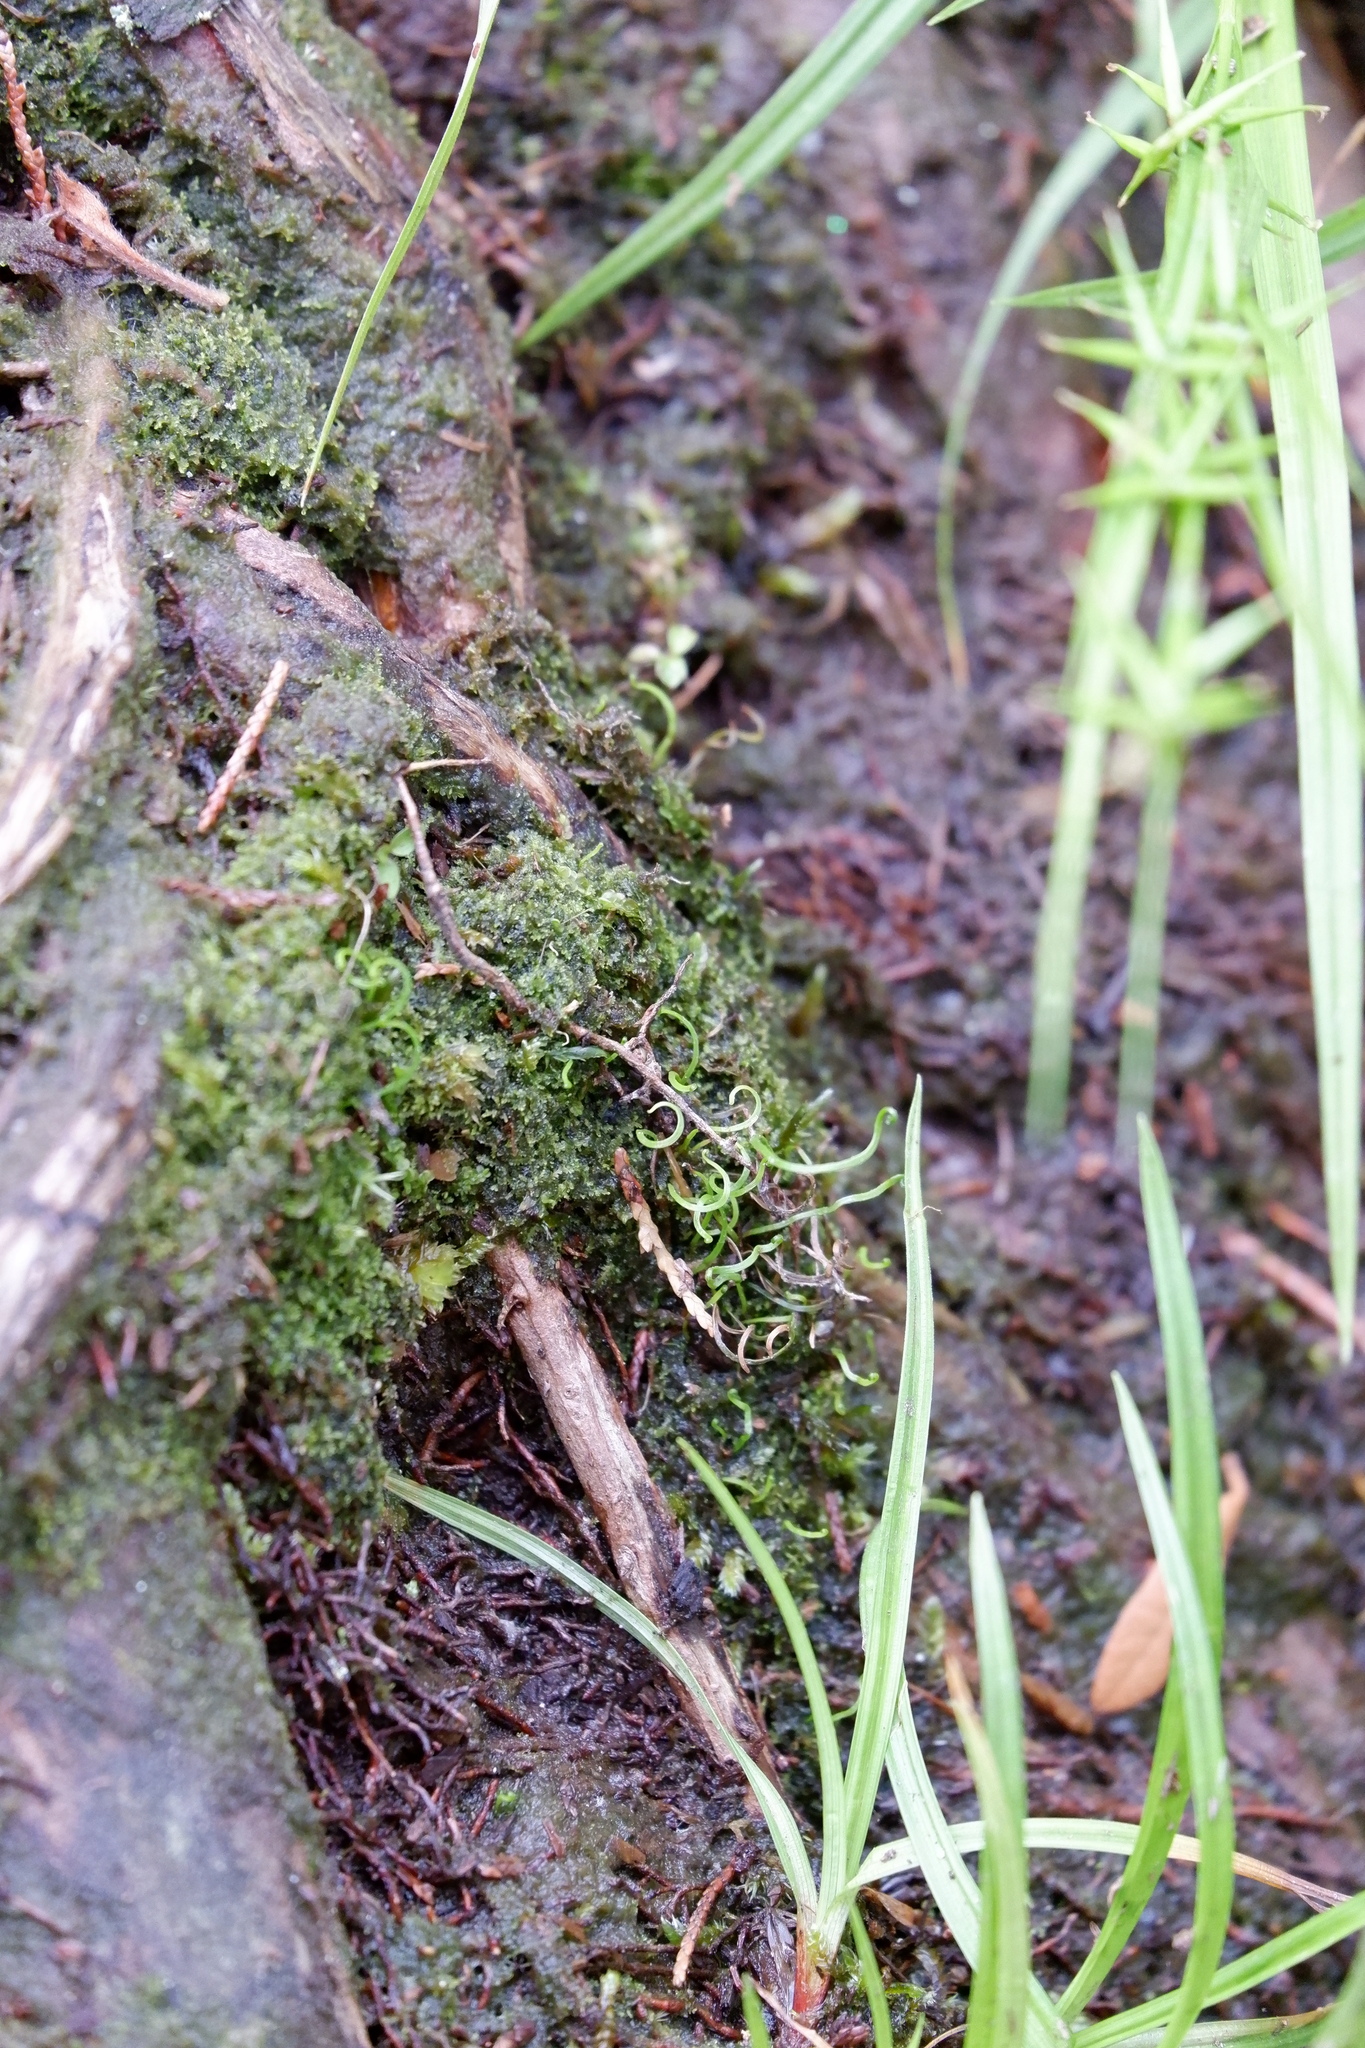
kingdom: Plantae
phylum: Tracheophyta
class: Polypodiopsida
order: Schizaeales
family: Schizaeaceae
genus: Schizaea
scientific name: Schizaea pusilla
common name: Curly-grass fern
